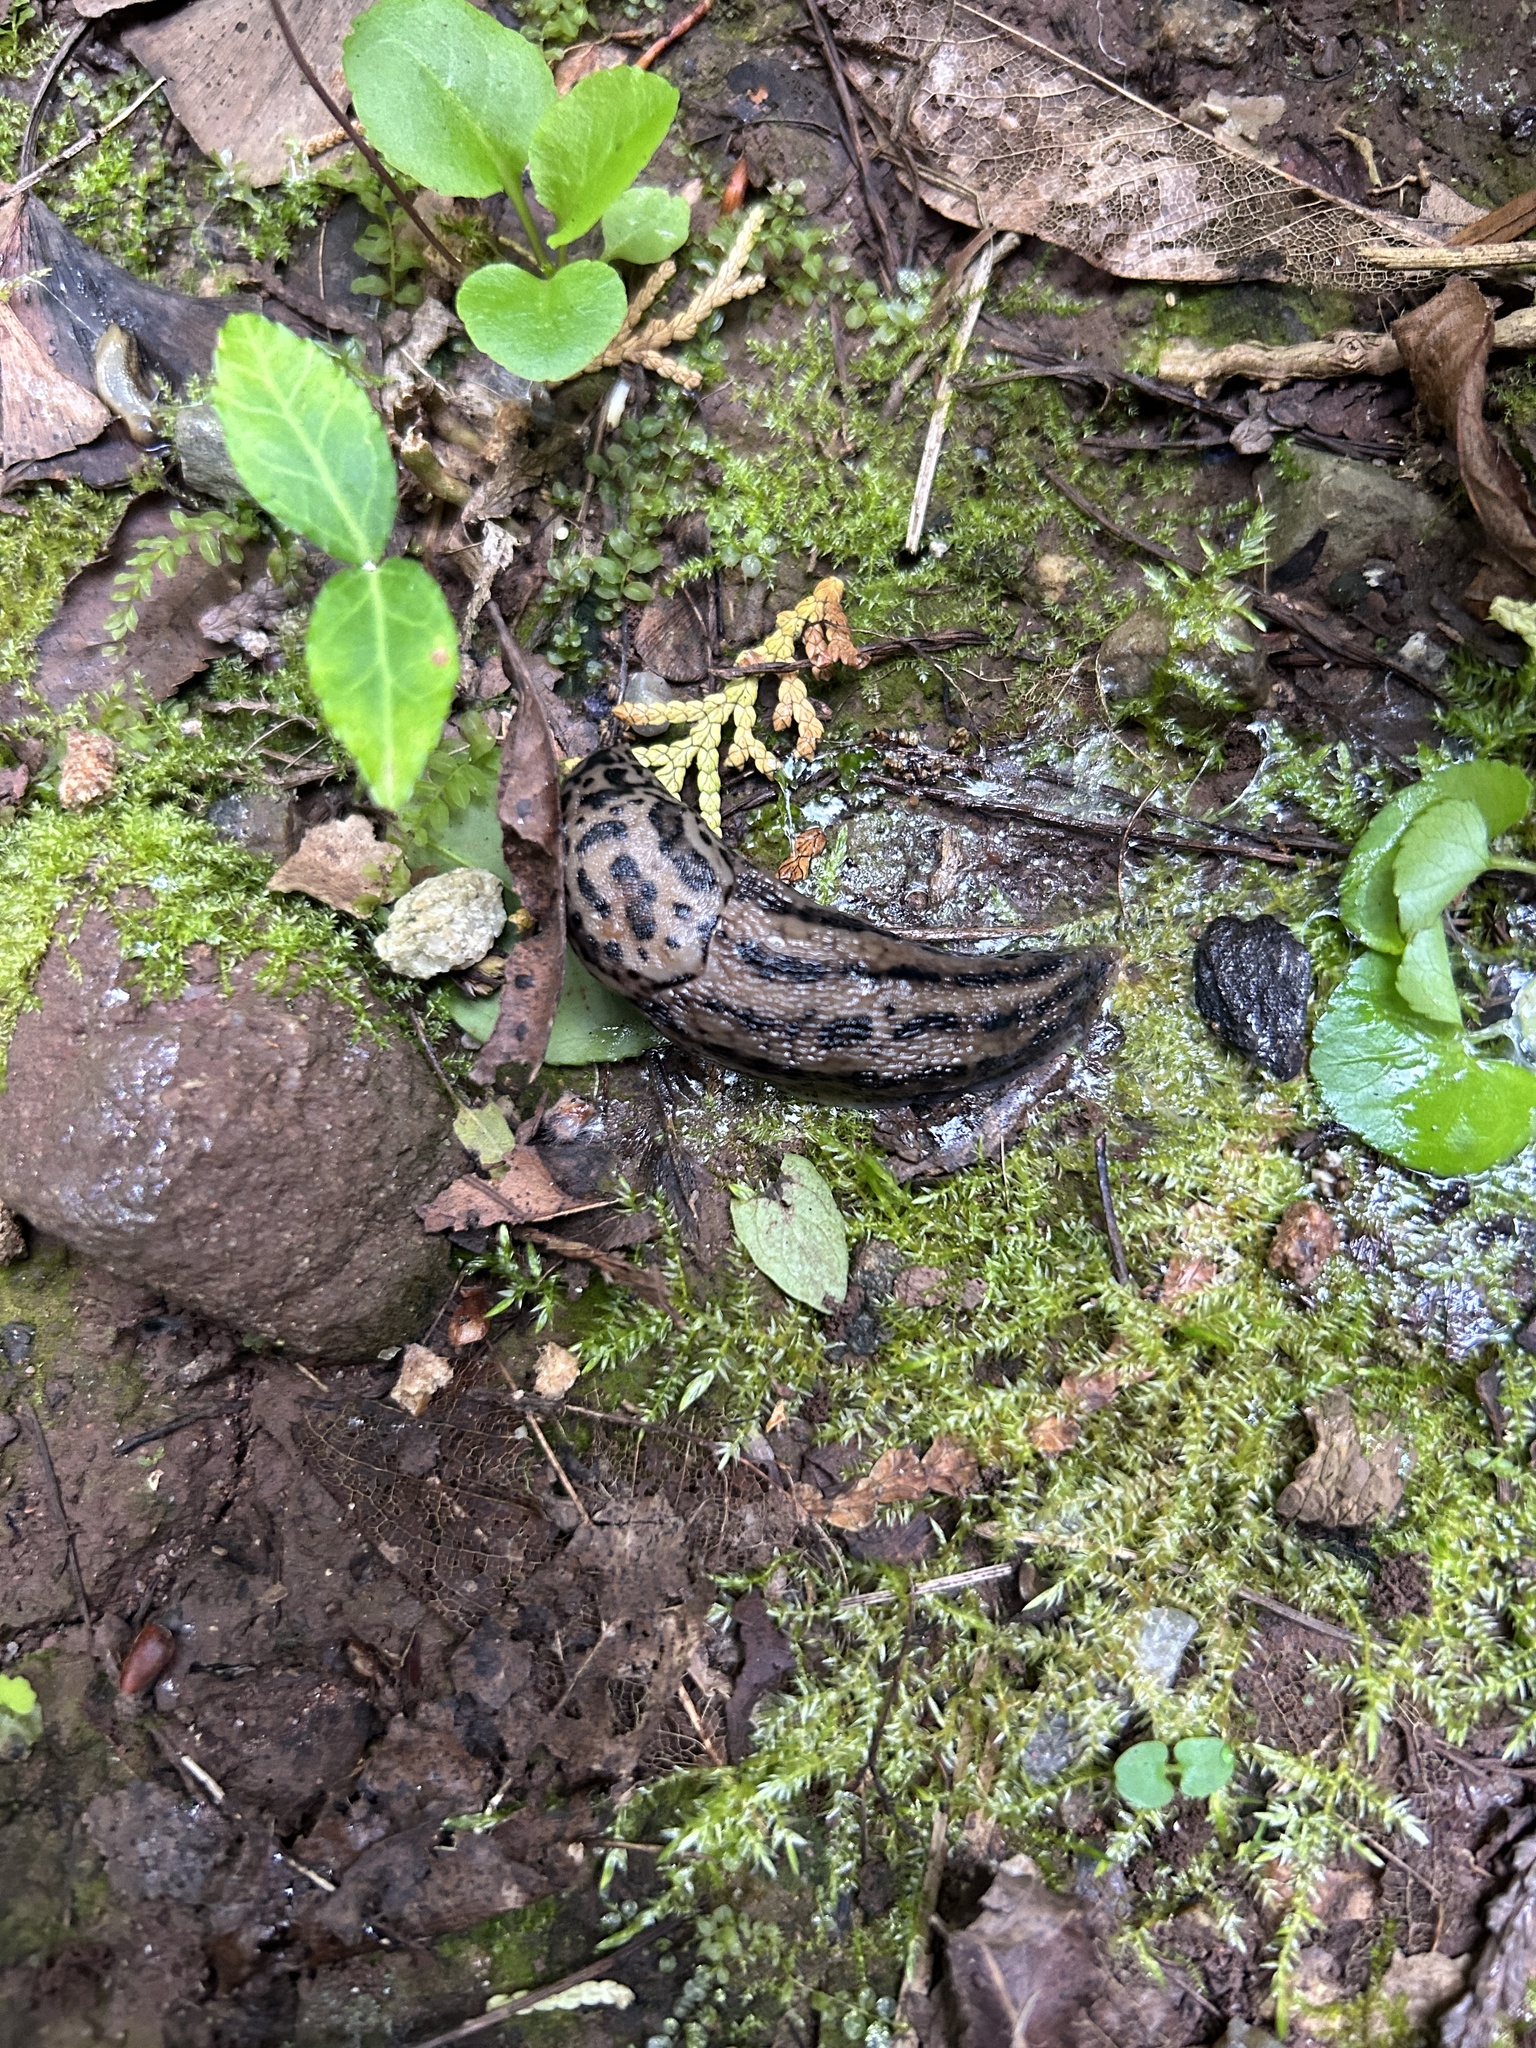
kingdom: Animalia
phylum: Mollusca
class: Gastropoda
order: Stylommatophora
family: Limacidae
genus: Limax
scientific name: Limax maximus
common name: Great grey slug
